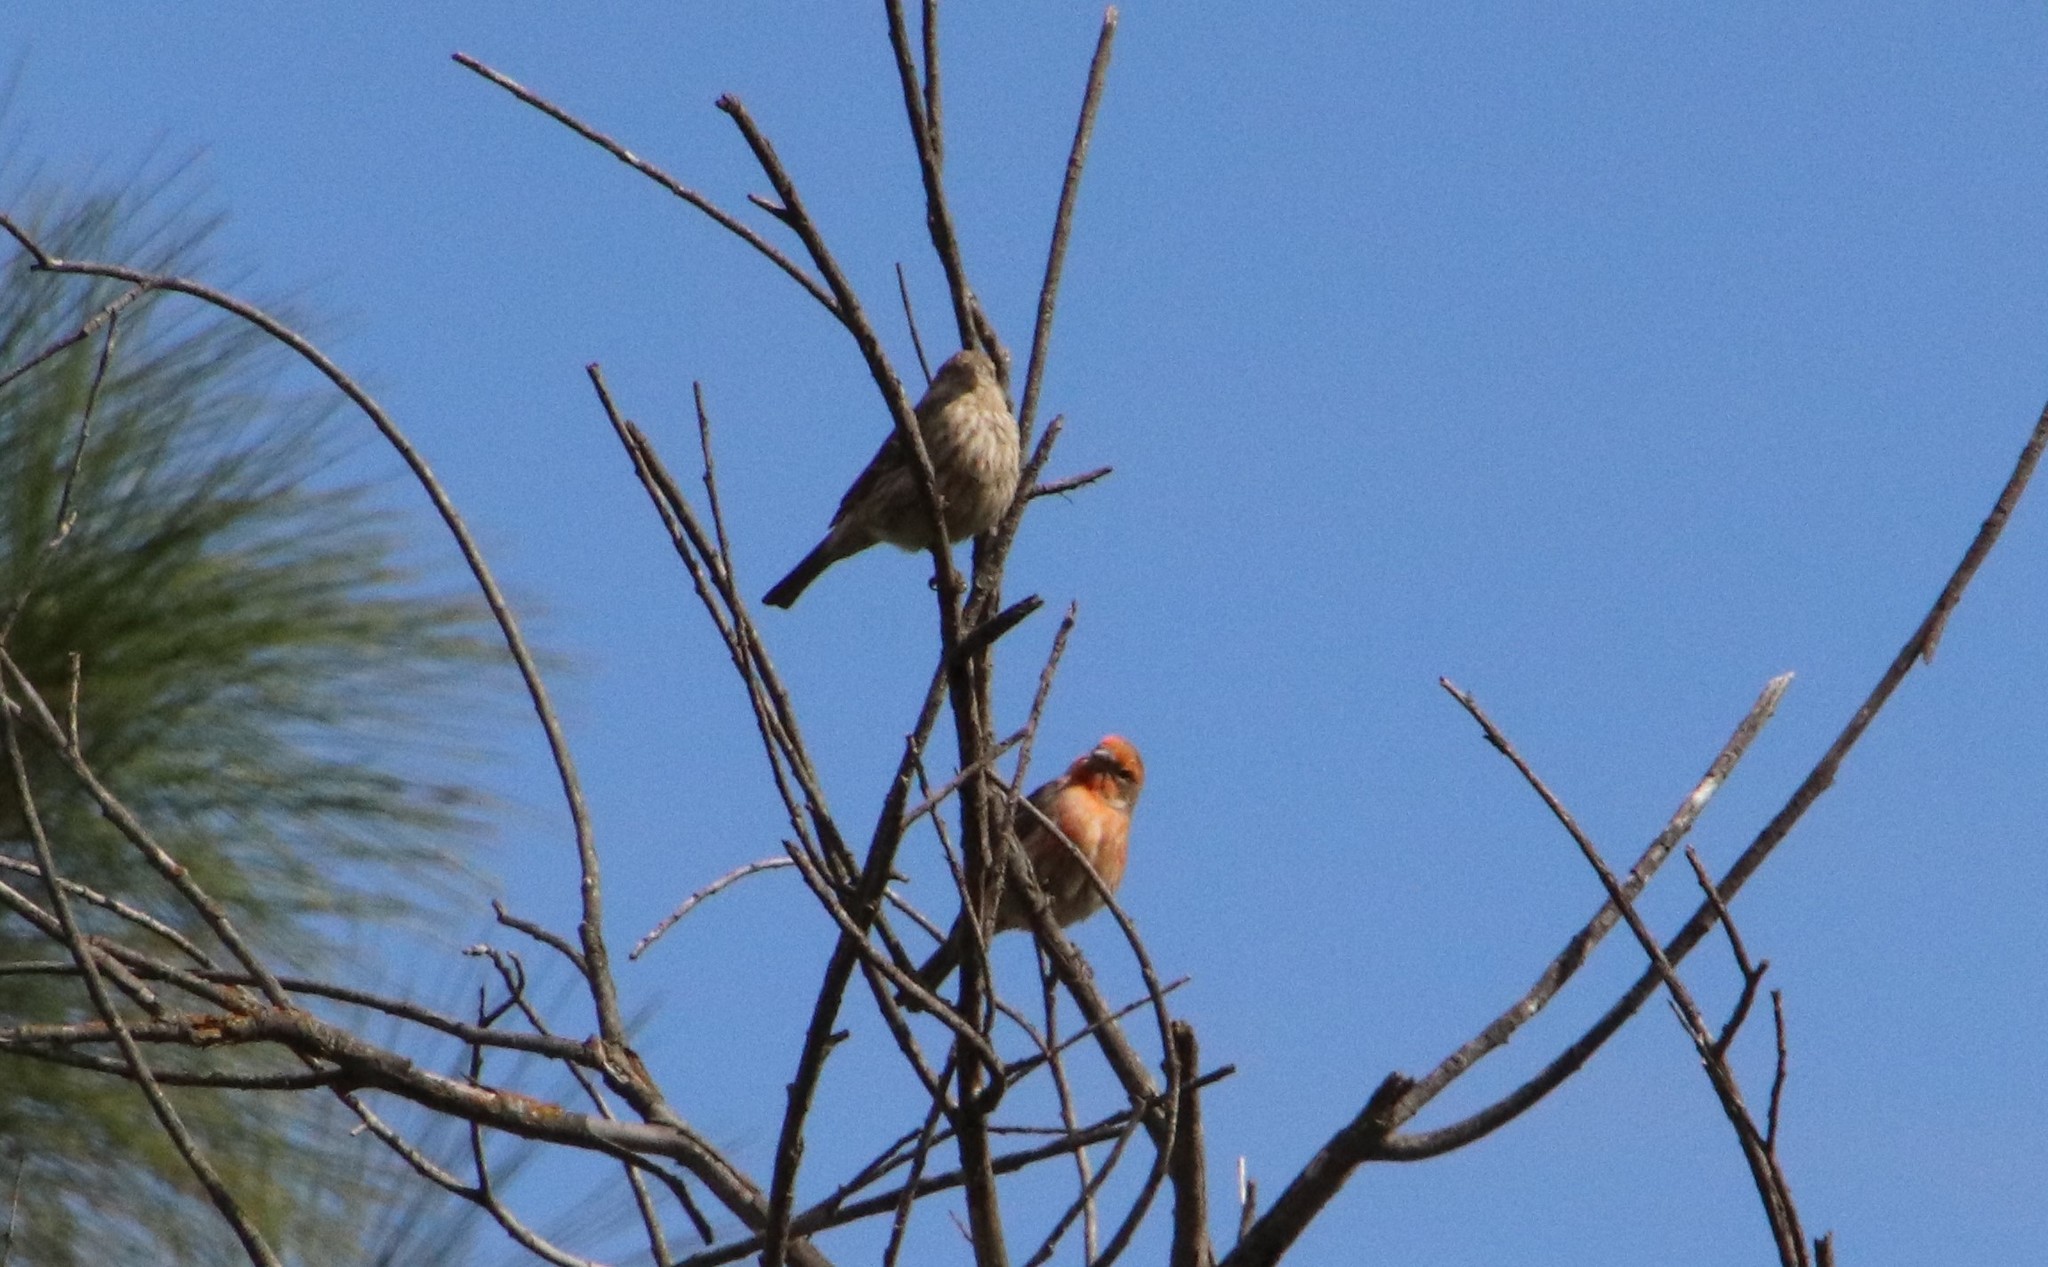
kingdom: Animalia
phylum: Chordata
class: Aves
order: Passeriformes
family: Fringillidae
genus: Haemorhous
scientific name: Haemorhous mexicanus
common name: House finch
